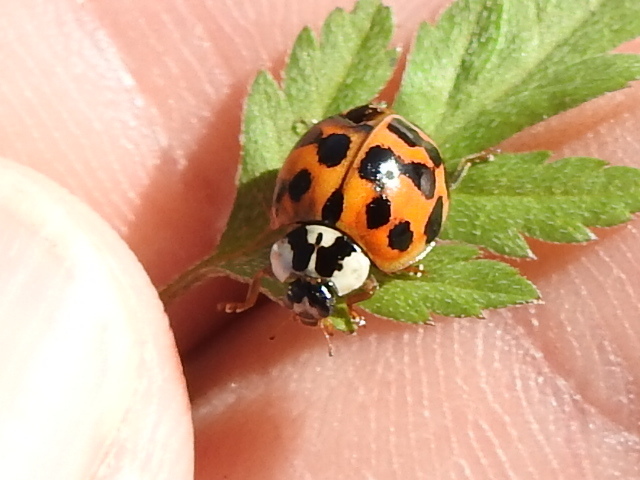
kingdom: Animalia
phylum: Arthropoda
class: Insecta
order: Coleoptera
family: Coccinellidae
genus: Harmonia
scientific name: Harmonia axyridis
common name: Harlequin ladybird
